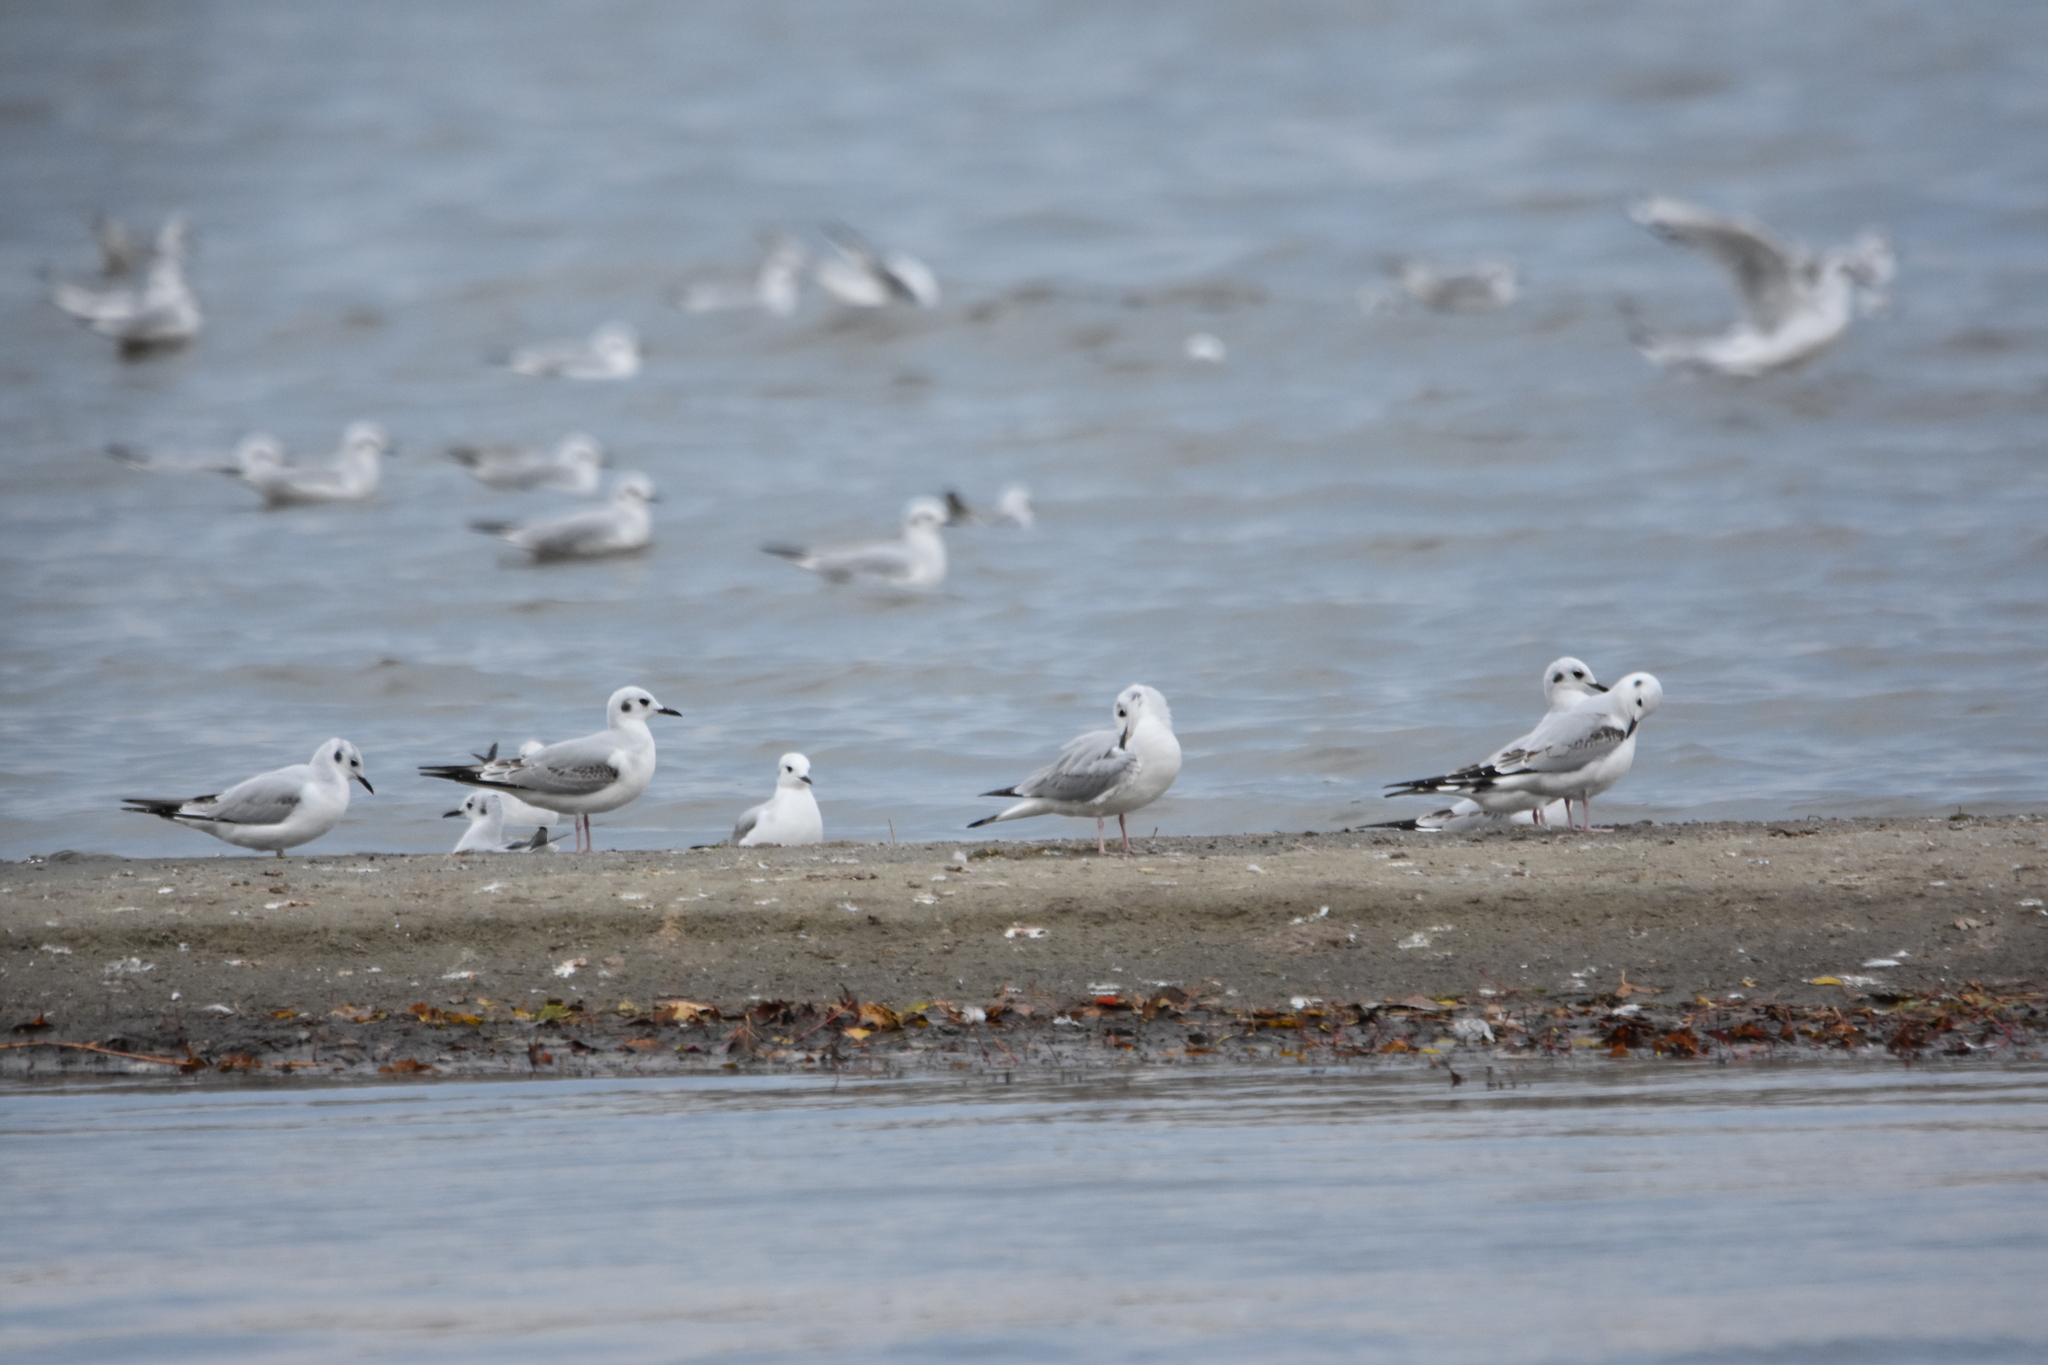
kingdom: Animalia
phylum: Chordata
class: Aves
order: Charadriiformes
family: Laridae
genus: Chroicocephalus
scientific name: Chroicocephalus philadelphia
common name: Bonaparte's gull
